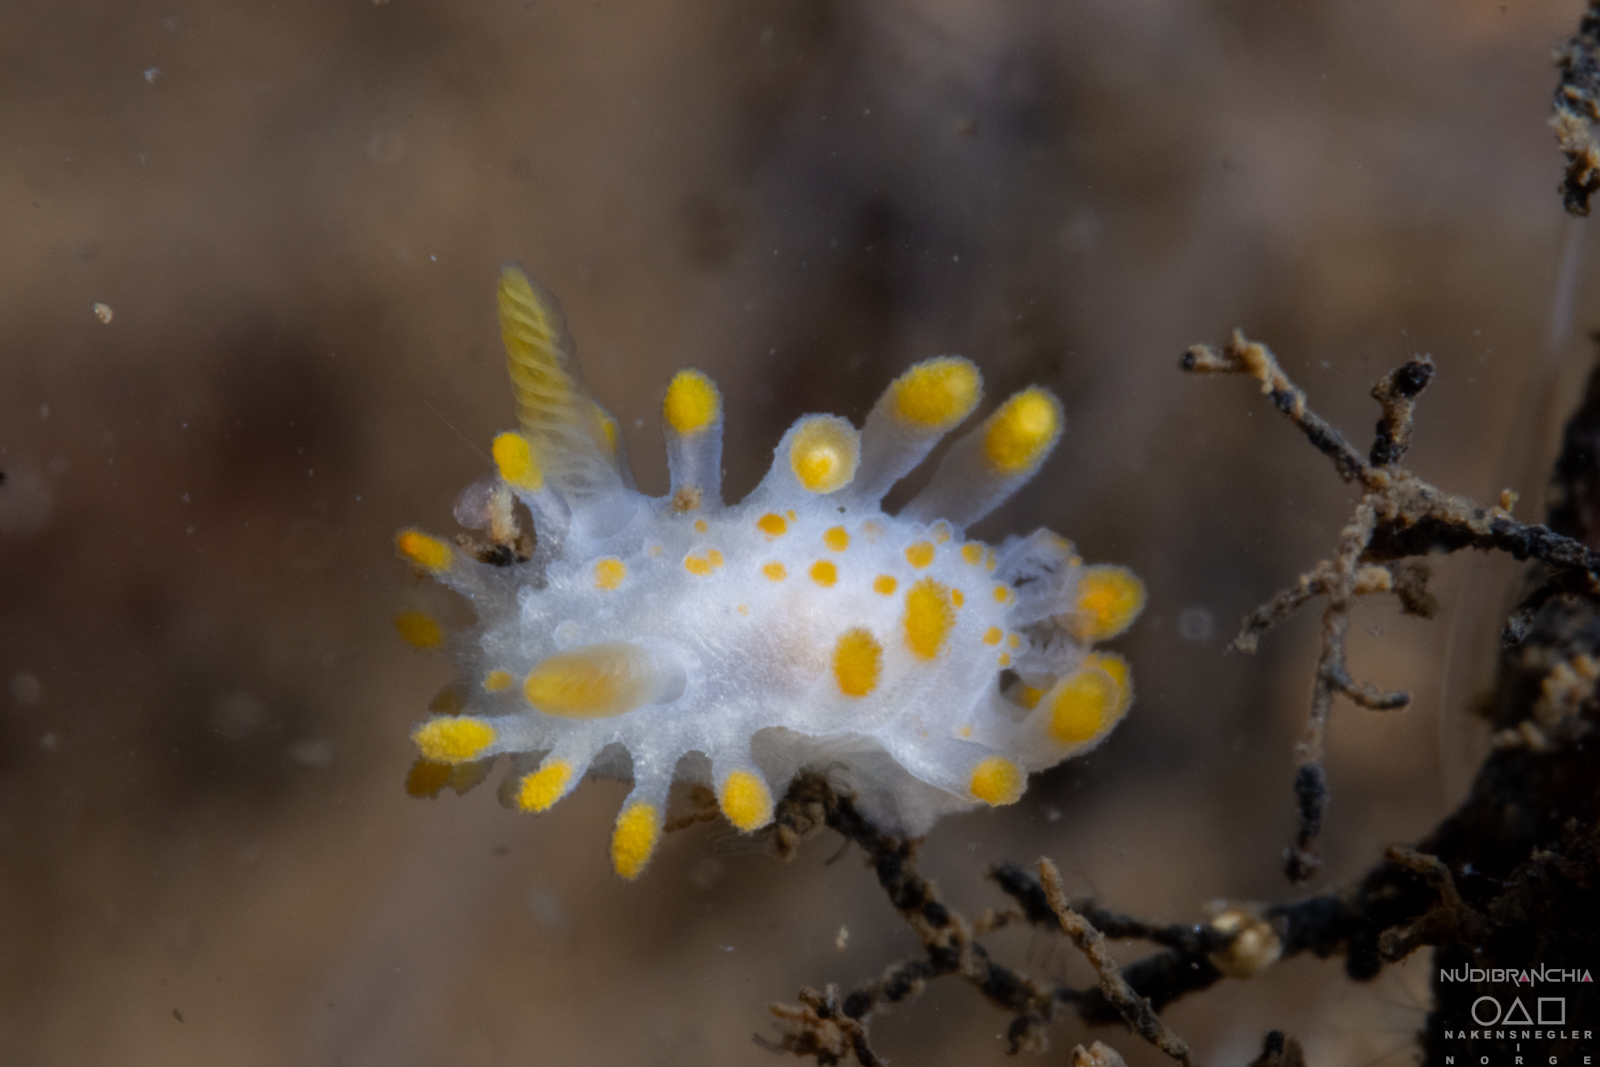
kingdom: Animalia
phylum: Mollusca
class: Gastropoda
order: Nudibranchia
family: Polyceridae
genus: Limacia
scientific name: Limacia clavigera
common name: Orange-clubbed sea slug
